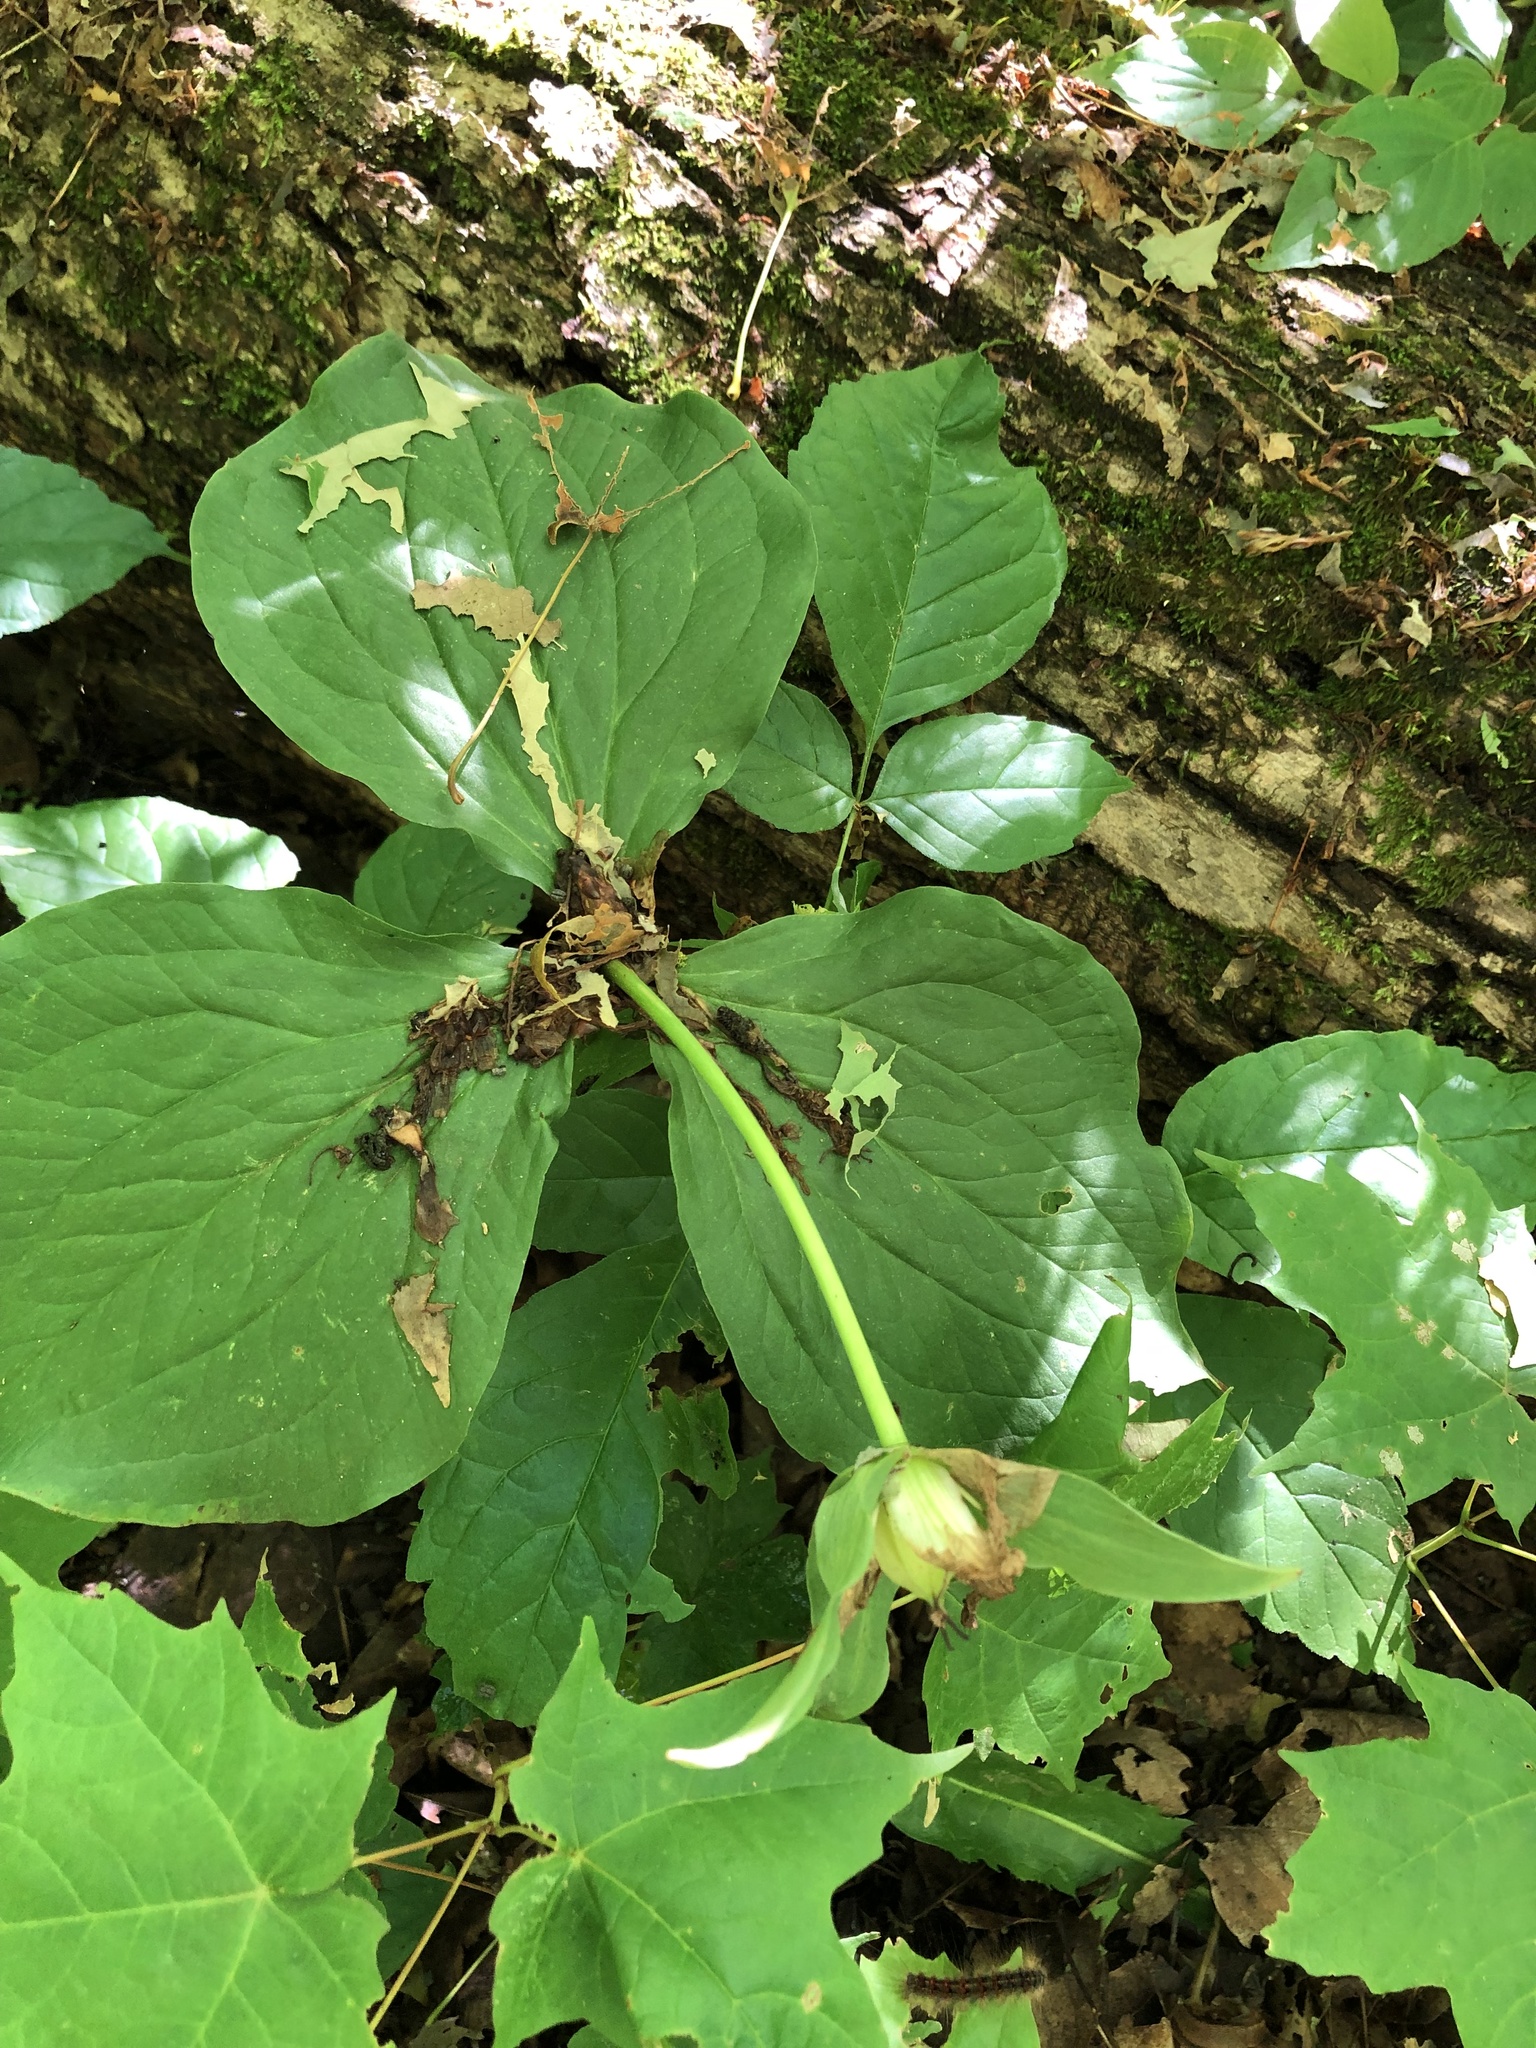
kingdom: Plantae
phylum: Tracheophyta
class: Liliopsida
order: Liliales
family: Melanthiaceae
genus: Trillium
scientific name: Trillium grandiflorum
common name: Great white trillium
